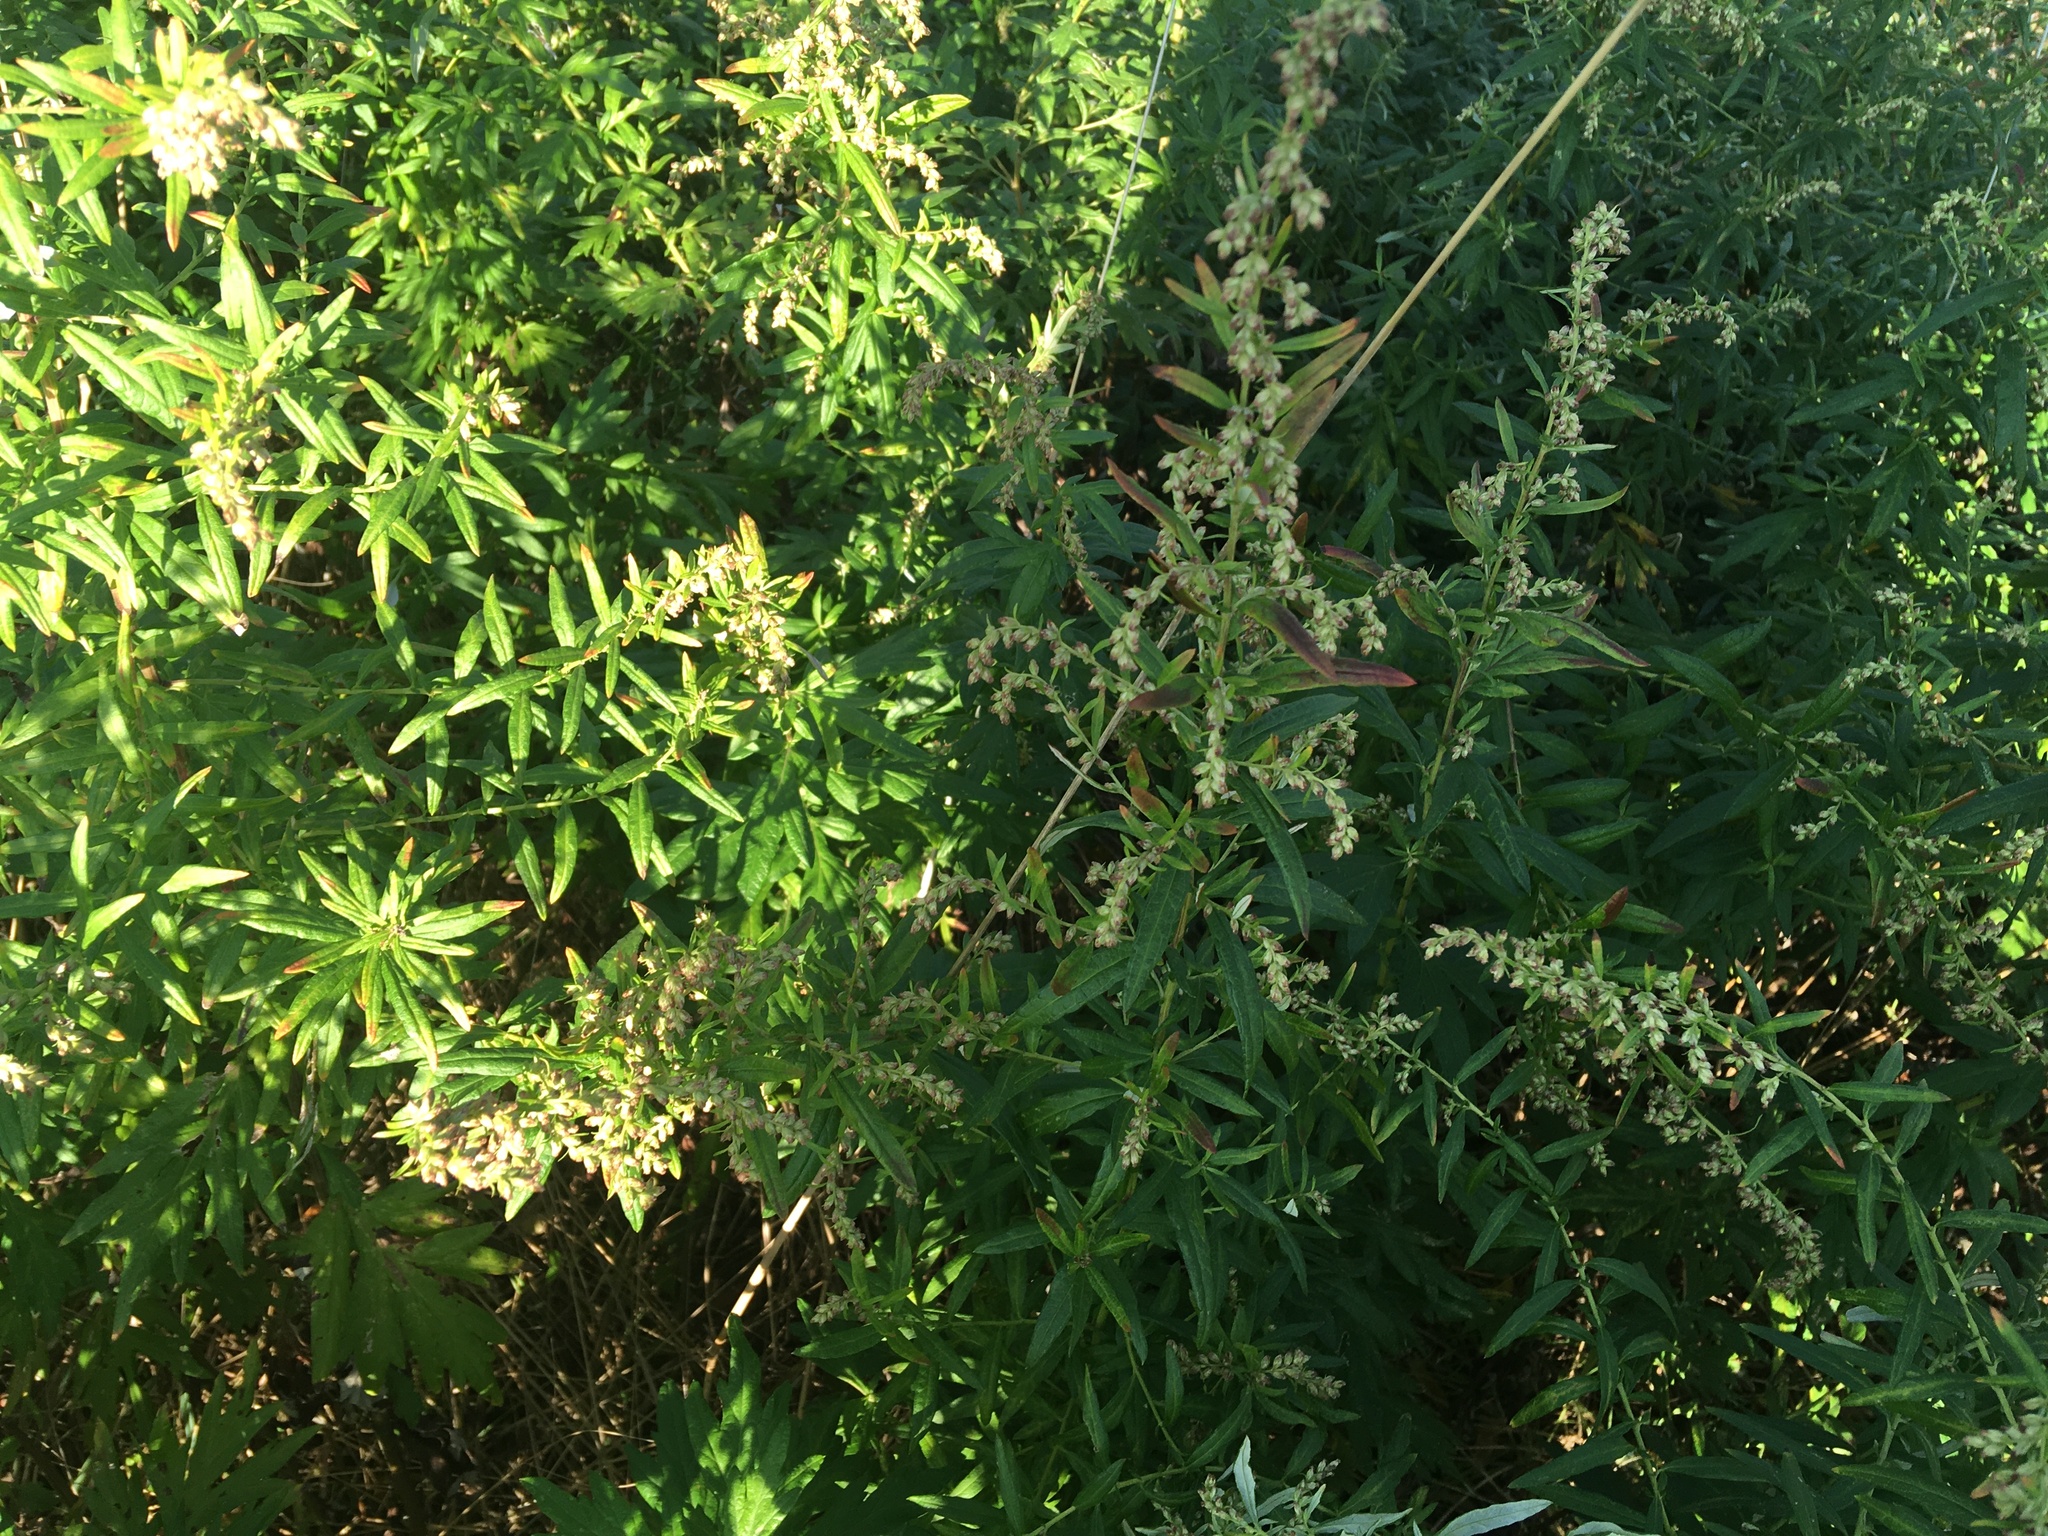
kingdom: Plantae
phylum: Tracheophyta
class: Magnoliopsida
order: Asterales
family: Asteraceae
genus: Artemisia
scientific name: Artemisia vulgaris
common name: Mugwort
